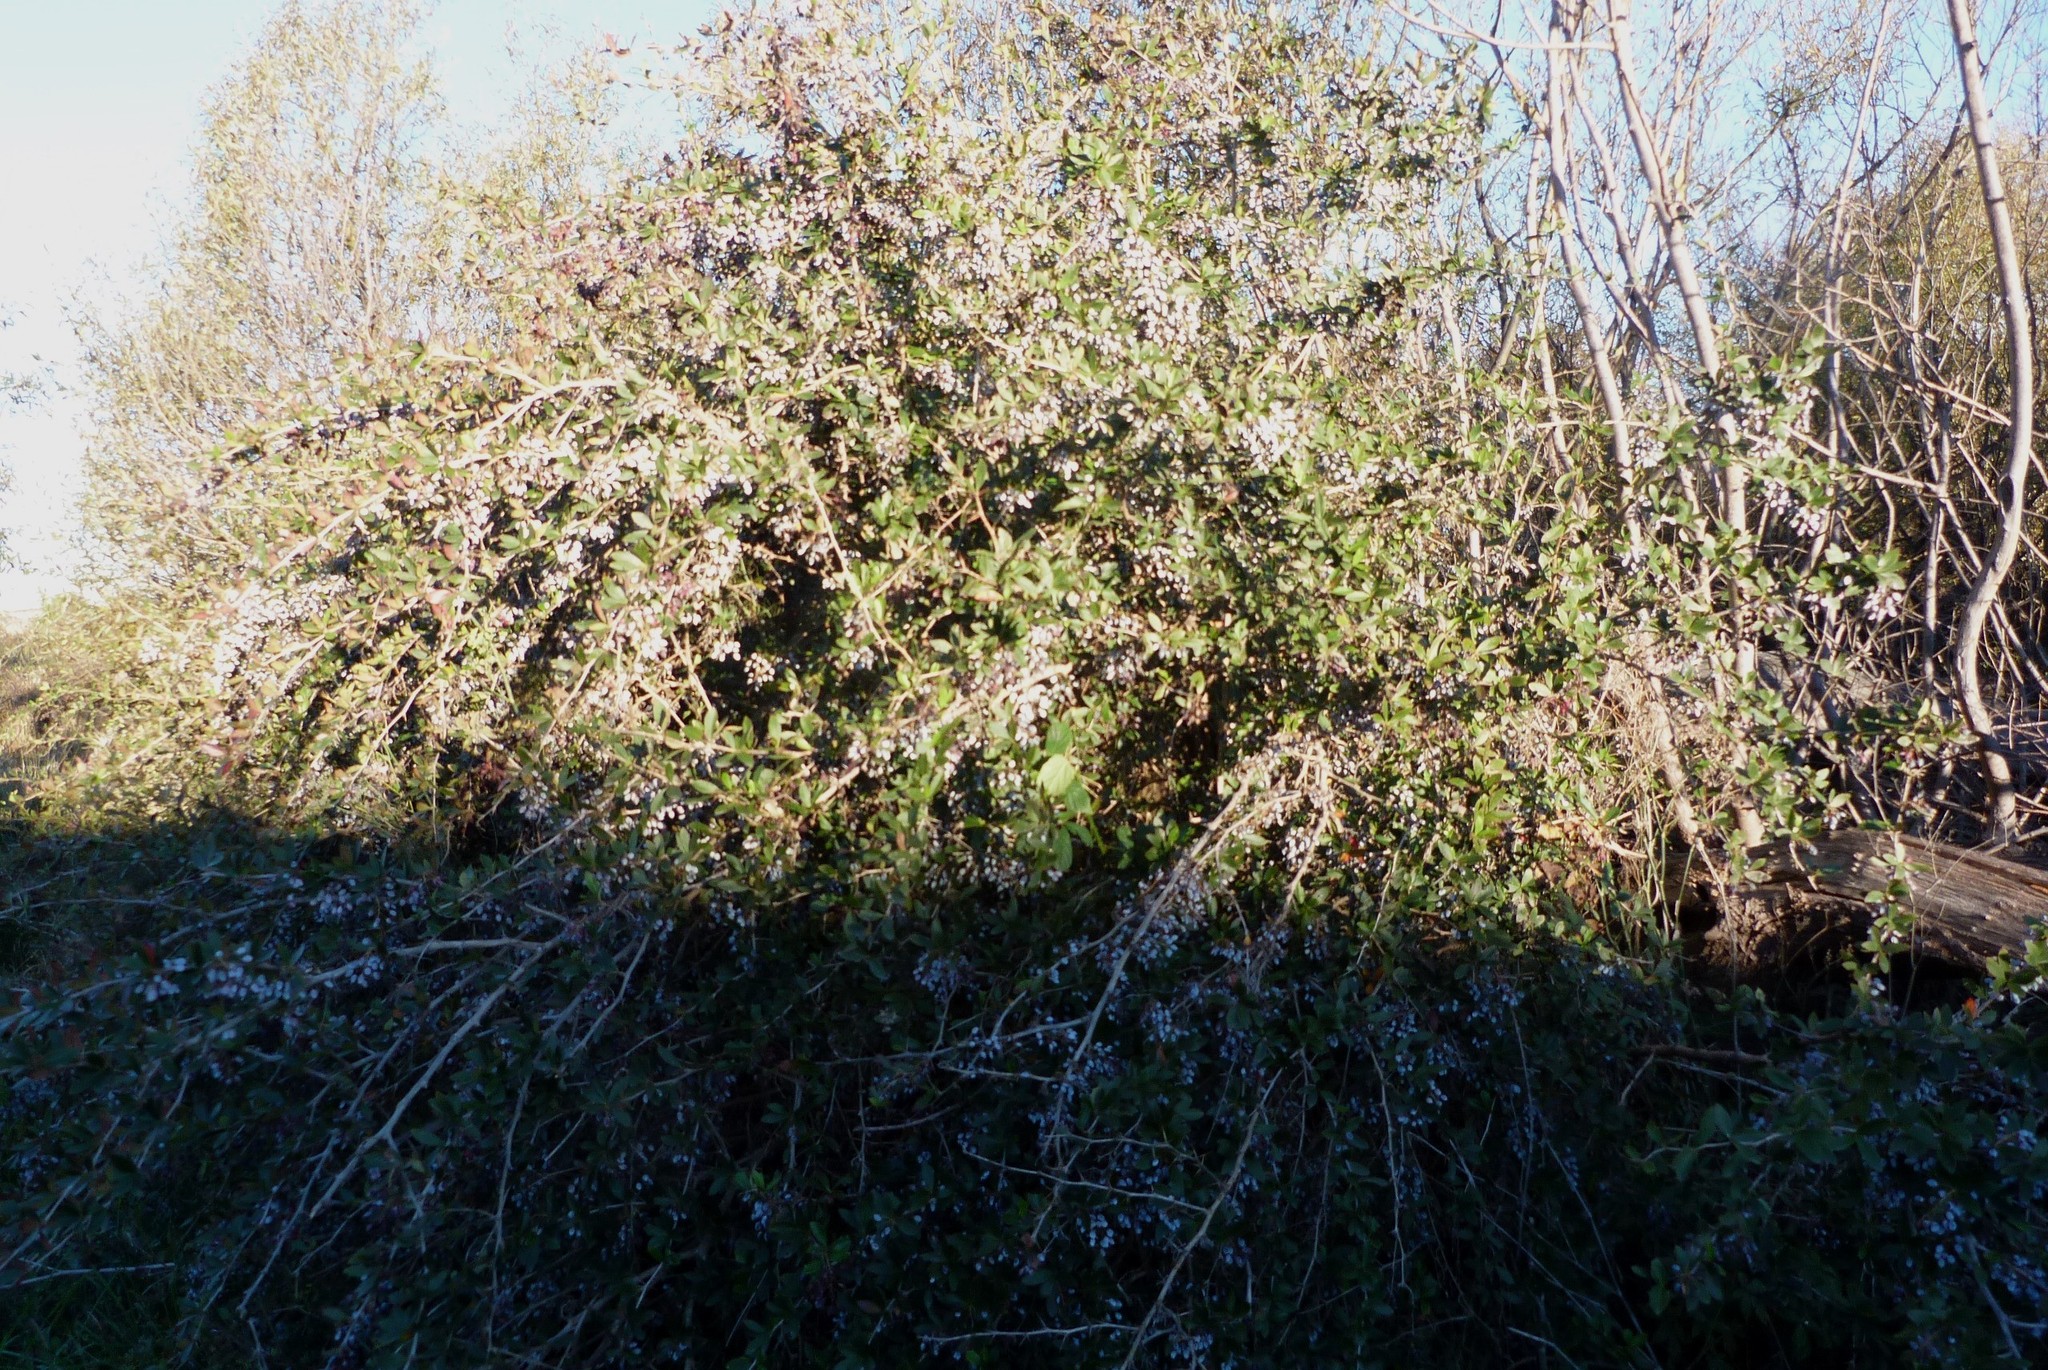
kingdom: Plantae
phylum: Tracheophyta
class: Magnoliopsida
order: Ranunculales
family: Berberidaceae
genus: Berberis
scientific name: Berberis glaucocarpa
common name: Great barberry
